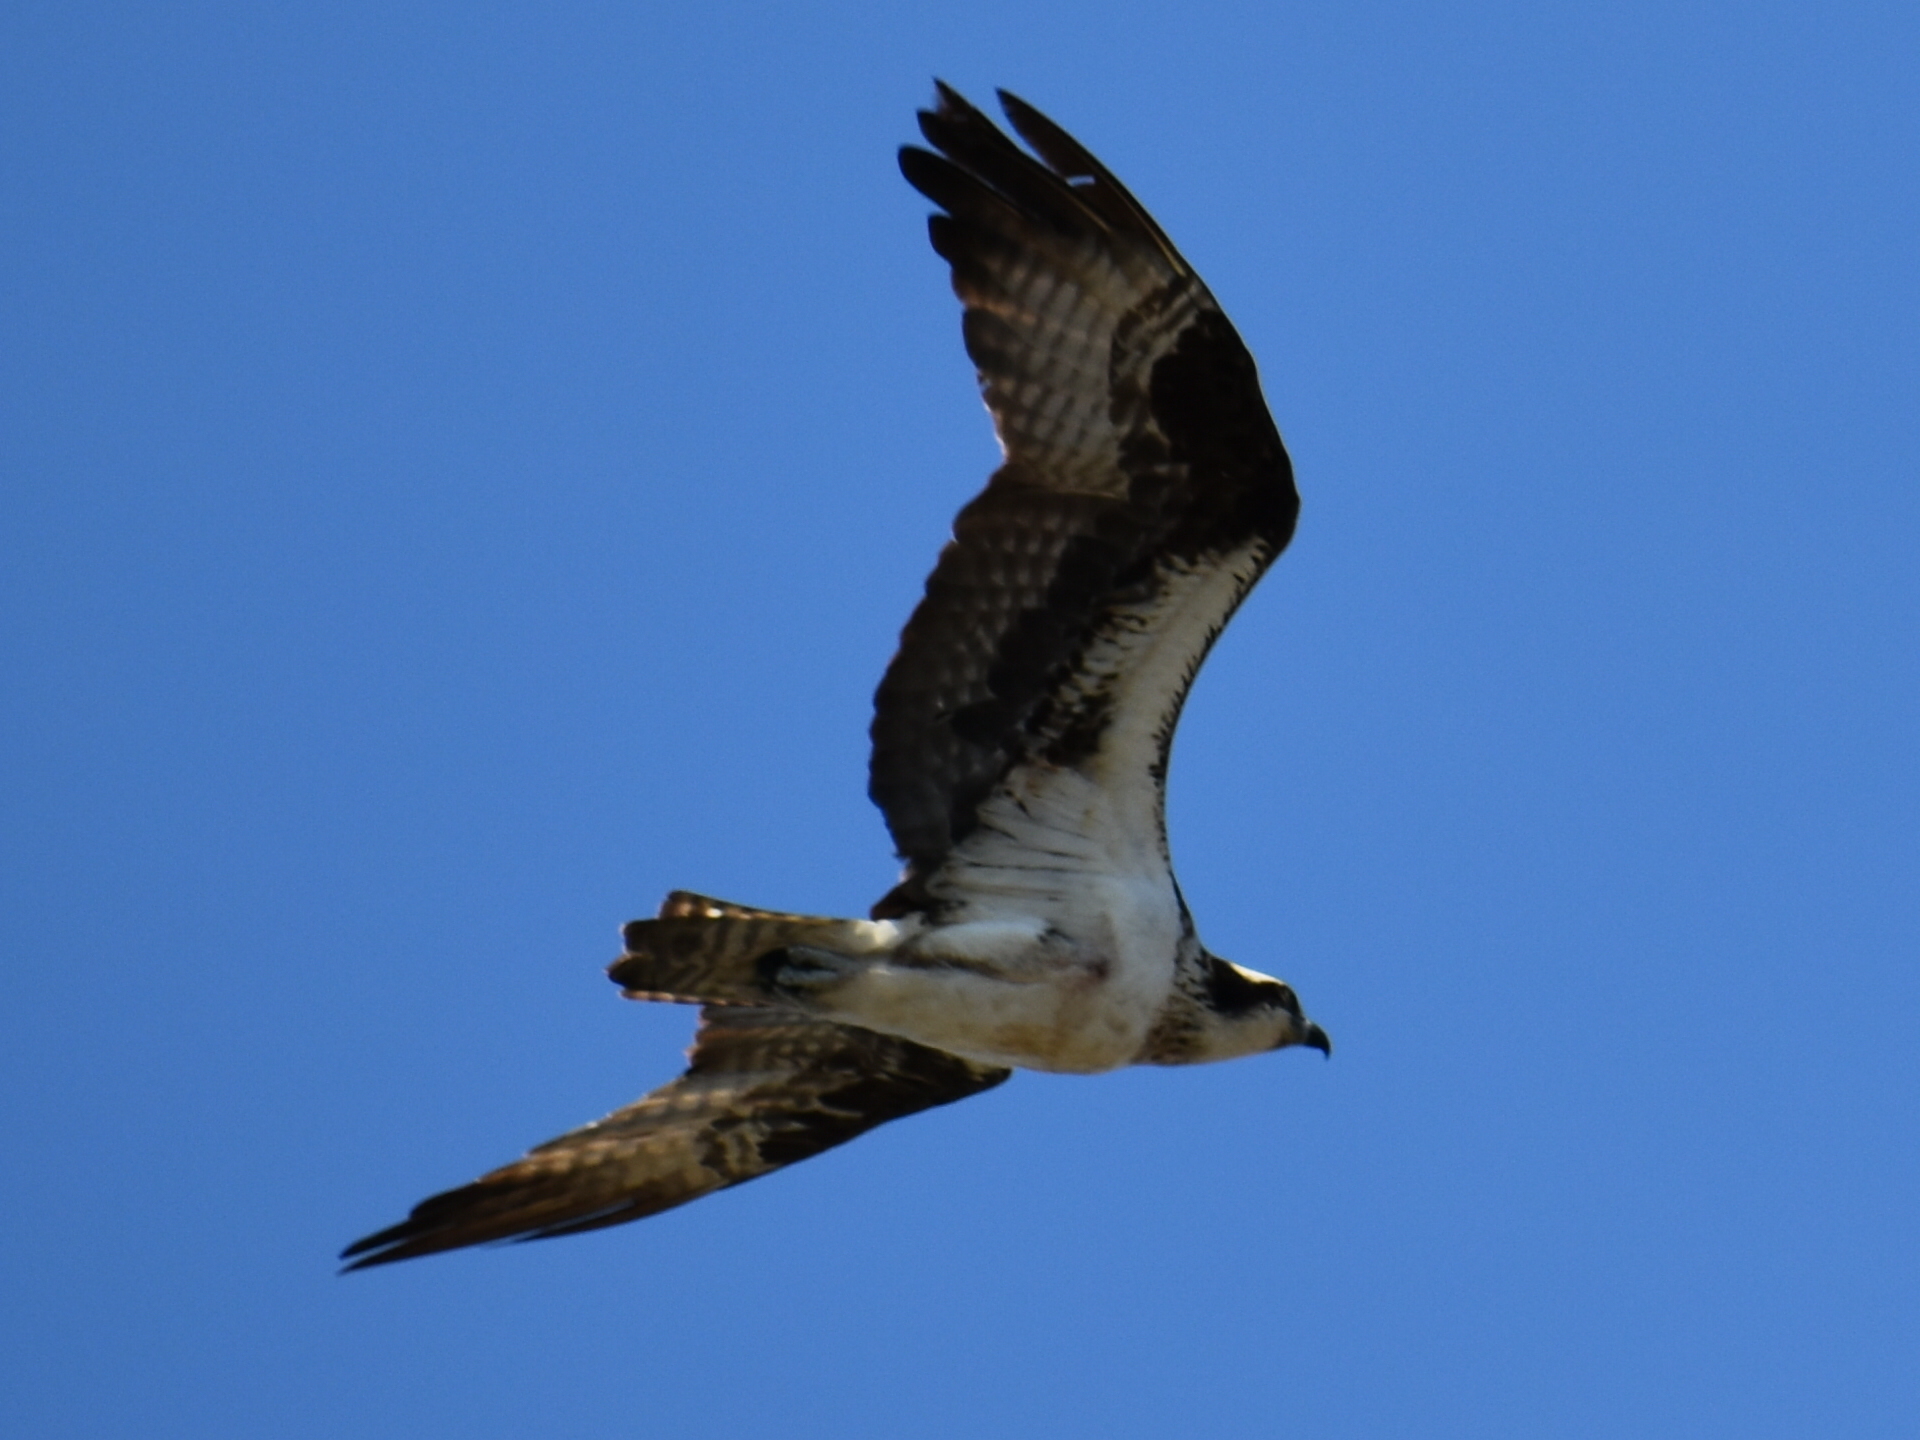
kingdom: Animalia
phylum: Chordata
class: Aves
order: Accipitriformes
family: Pandionidae
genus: Pandion
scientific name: Pandion haliaetus
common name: Osprey
